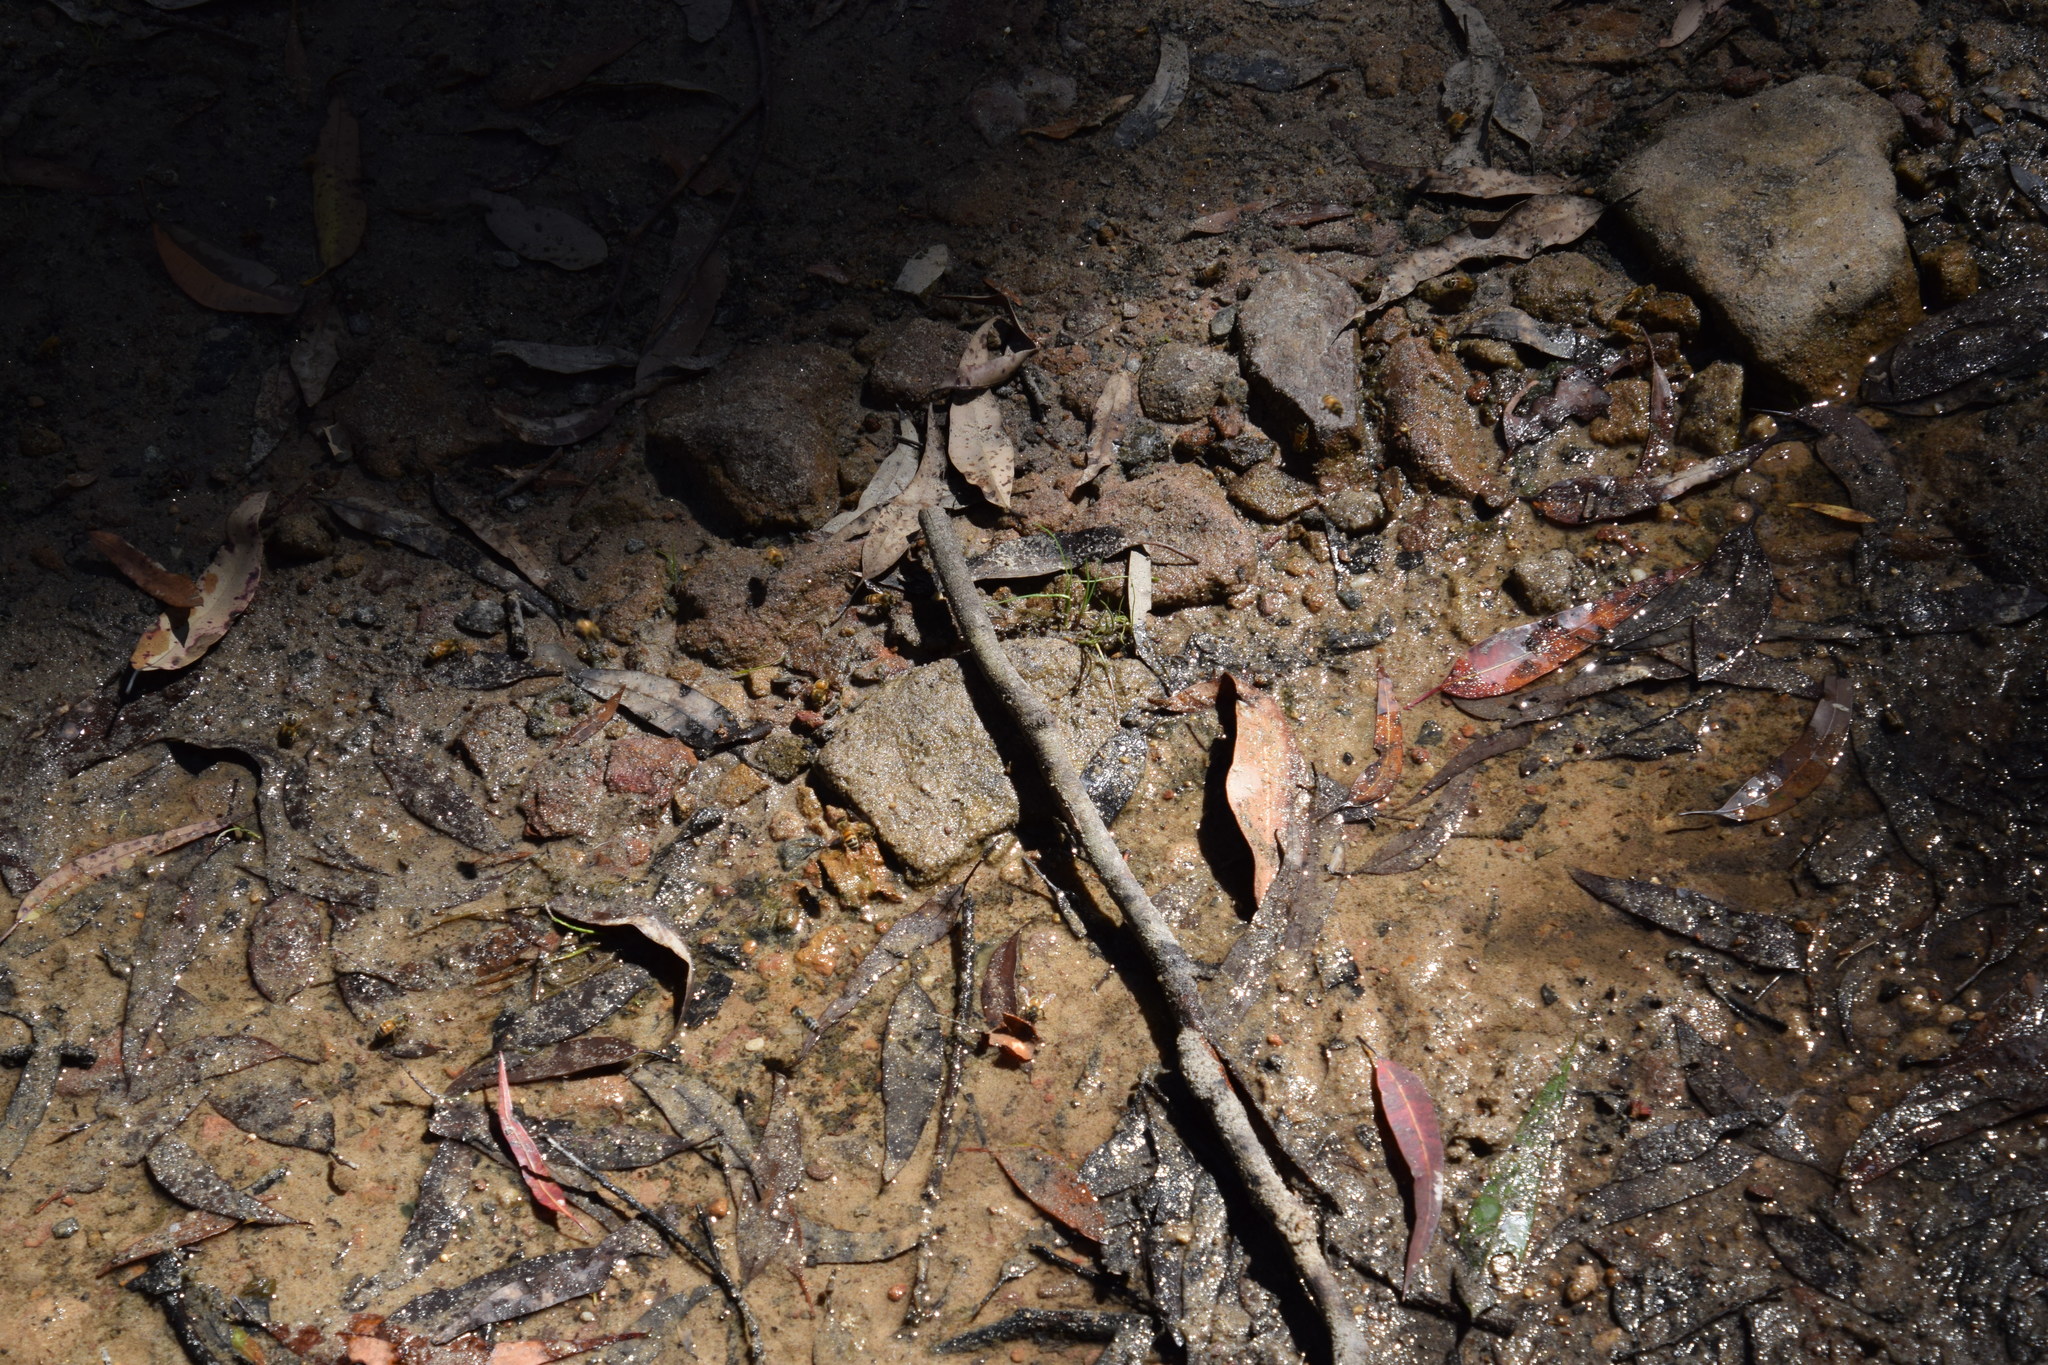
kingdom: Animalia
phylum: Arthropoda
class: Insecta
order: Hymenoptera
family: Apidae
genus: Apis
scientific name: Apis mellifera
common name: Honey bee
